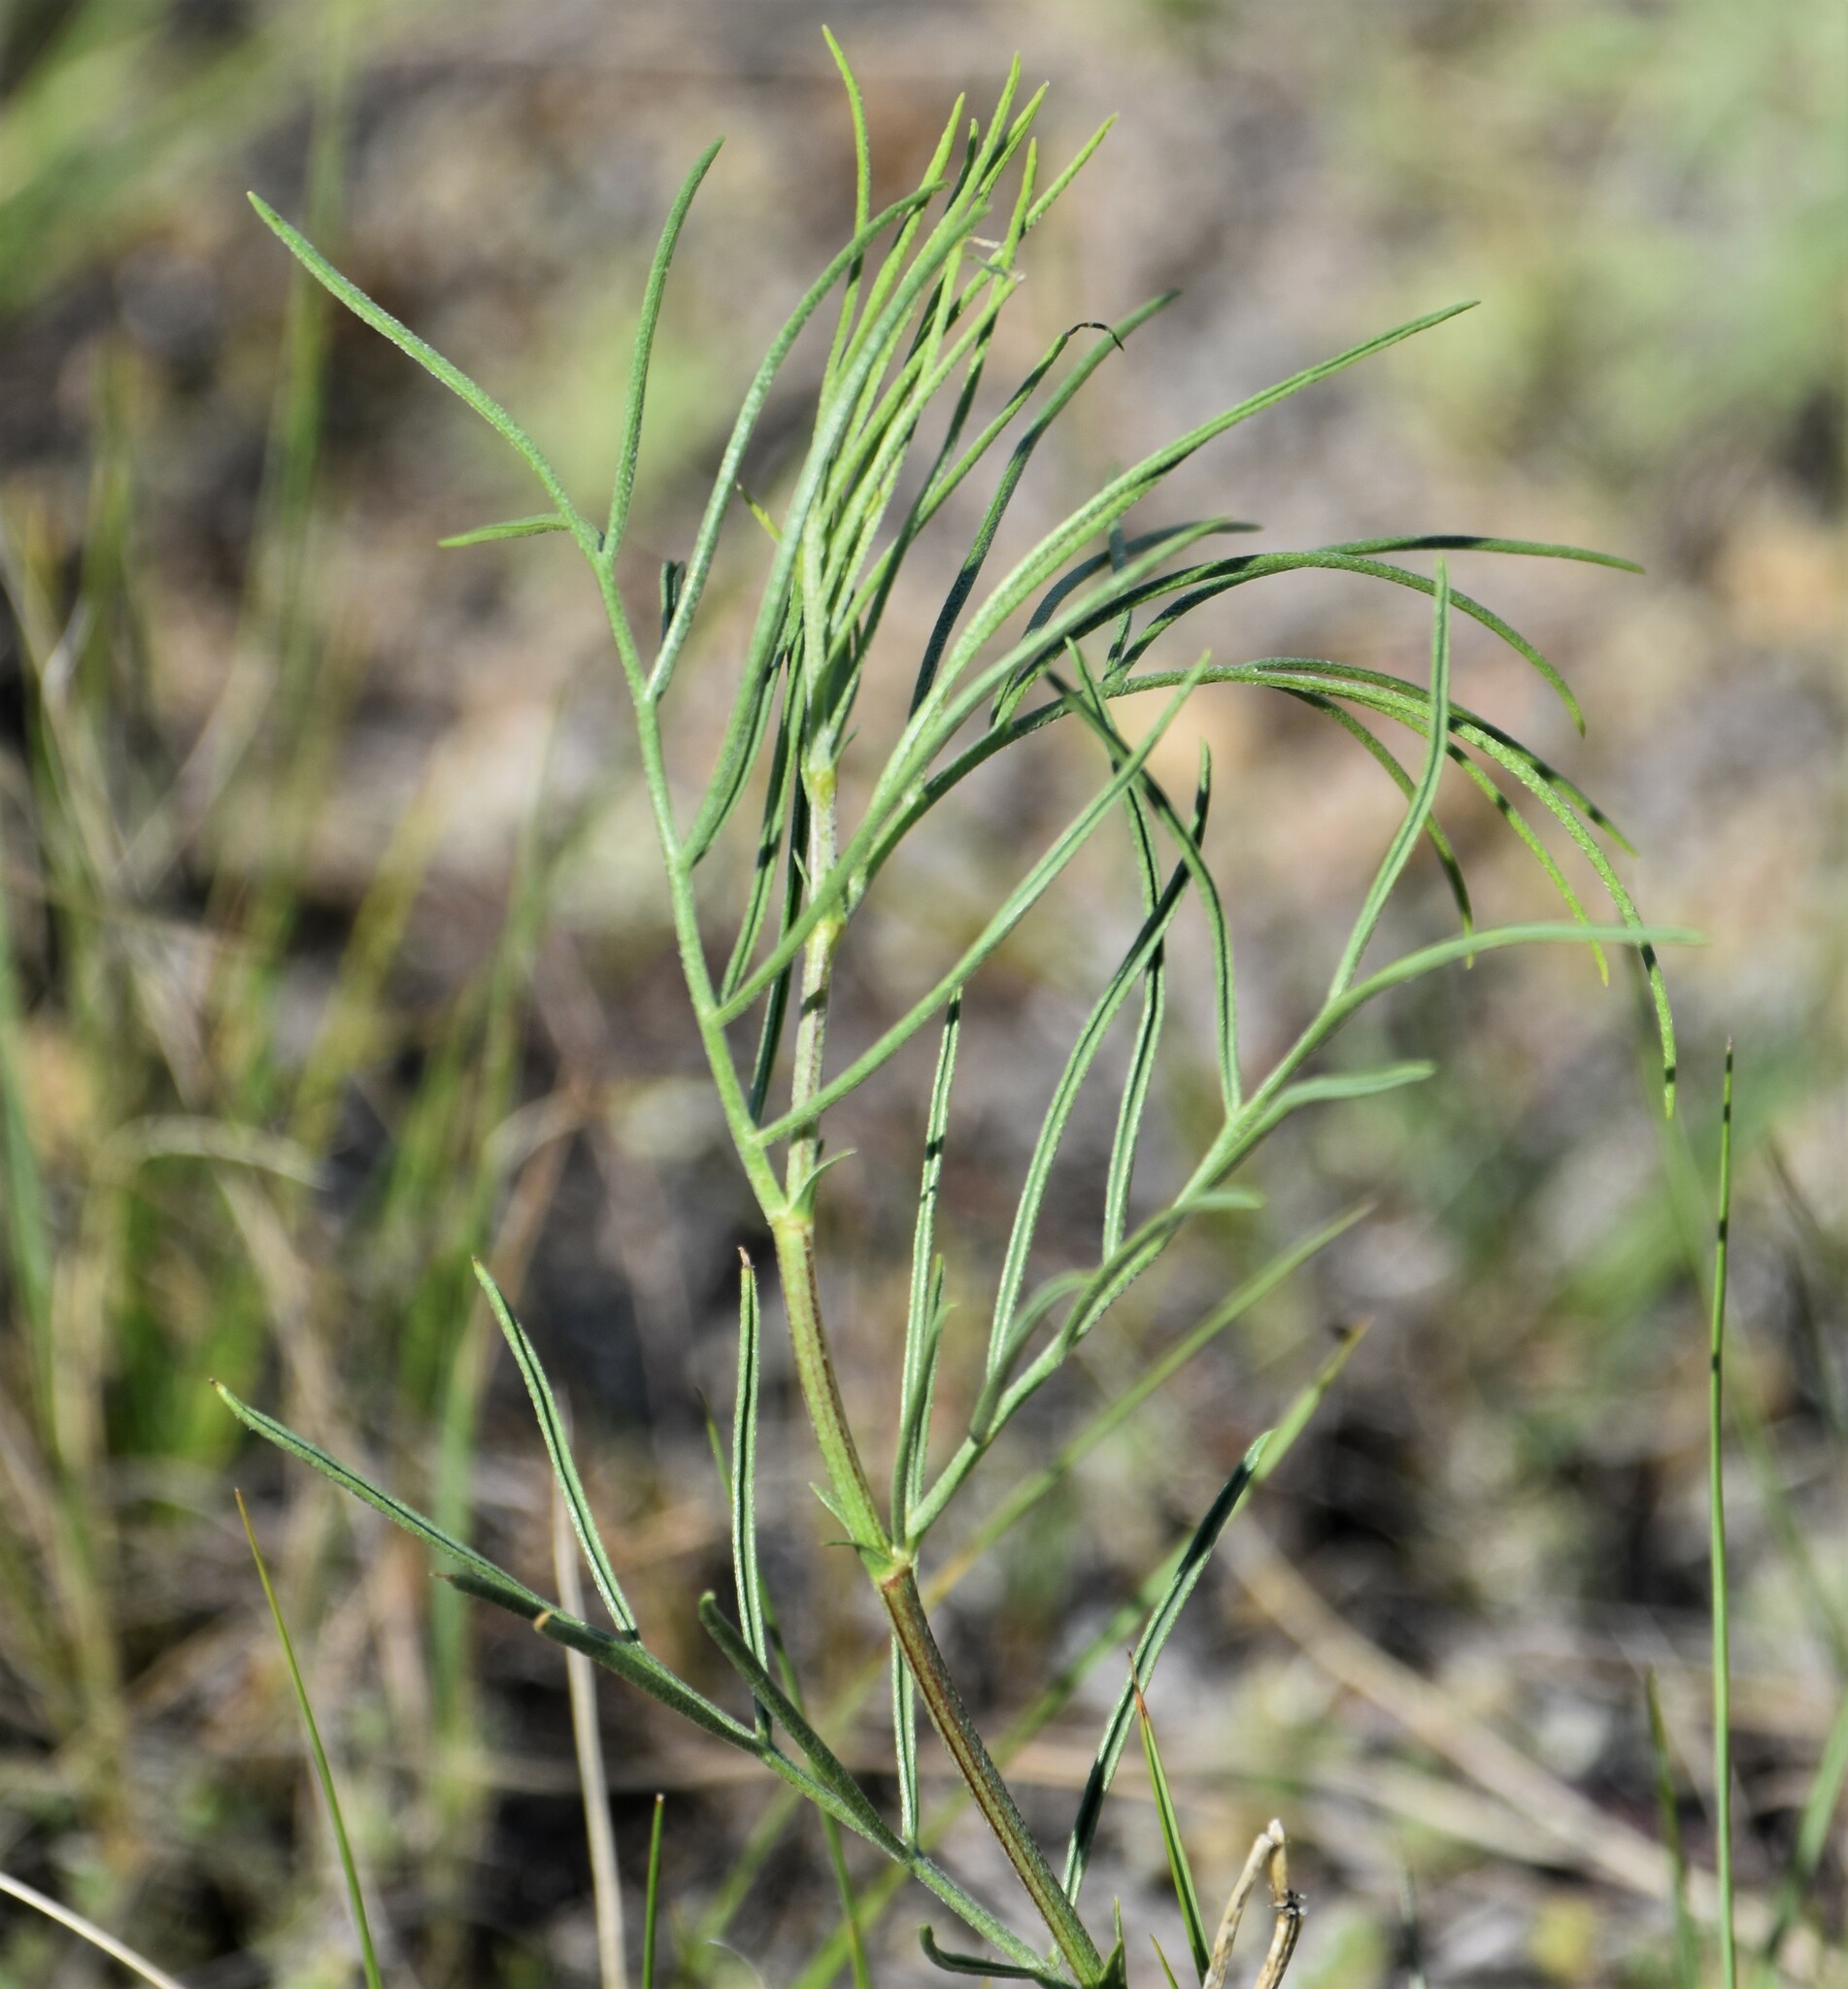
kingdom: Plantae
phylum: Tracheophyta
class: Magnoliopsida
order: Fabales
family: Fabaceae
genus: Astragalus
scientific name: Astragalus pectinatus
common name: Tine-leaf milk-vetch
